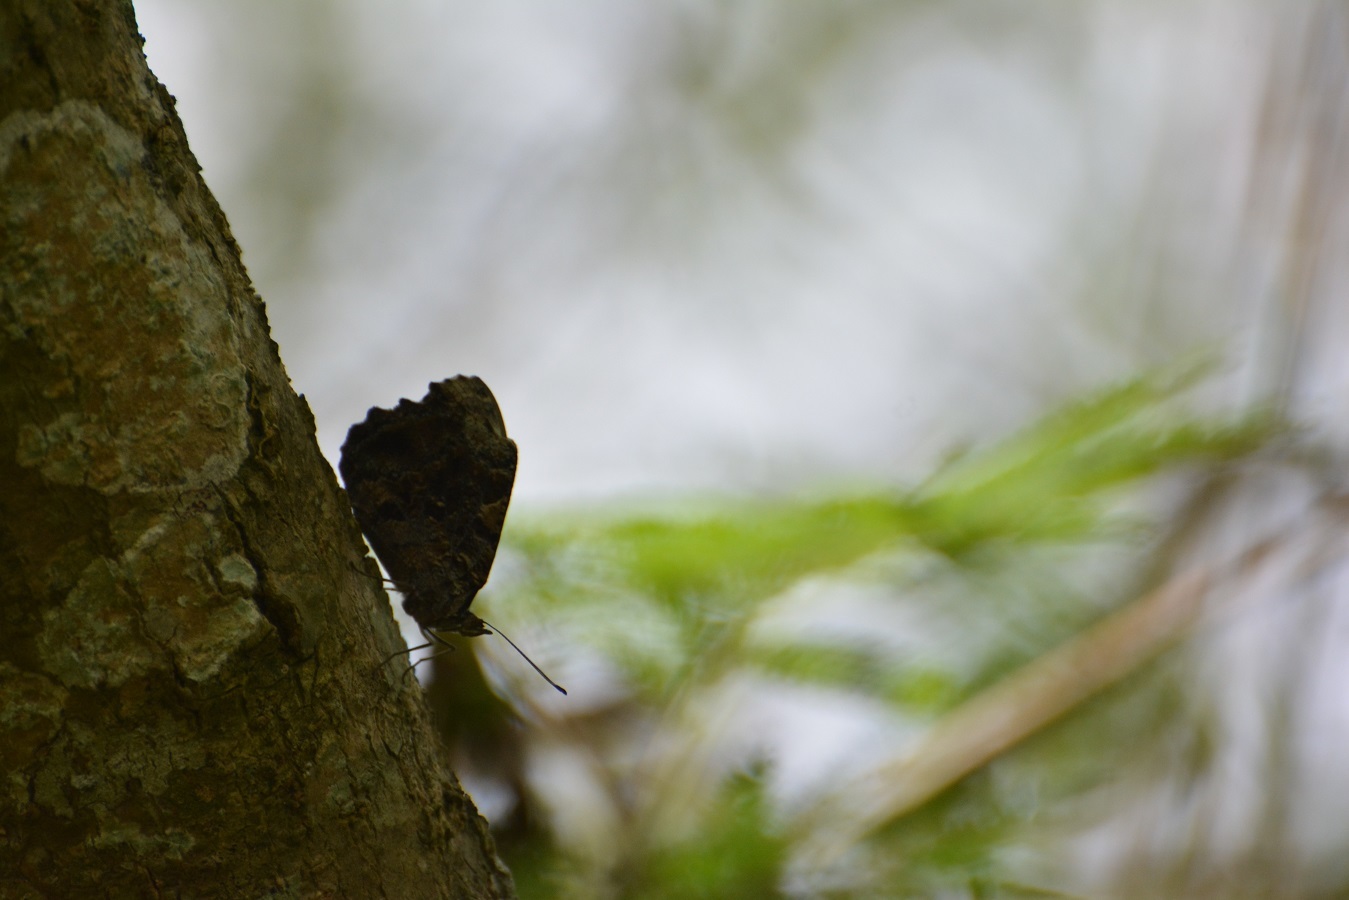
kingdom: Animalia
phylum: Arthropoda
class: Insecta
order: Lepidoptera
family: Nymphalidae
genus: Myscelia
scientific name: Myscelia ethusa
